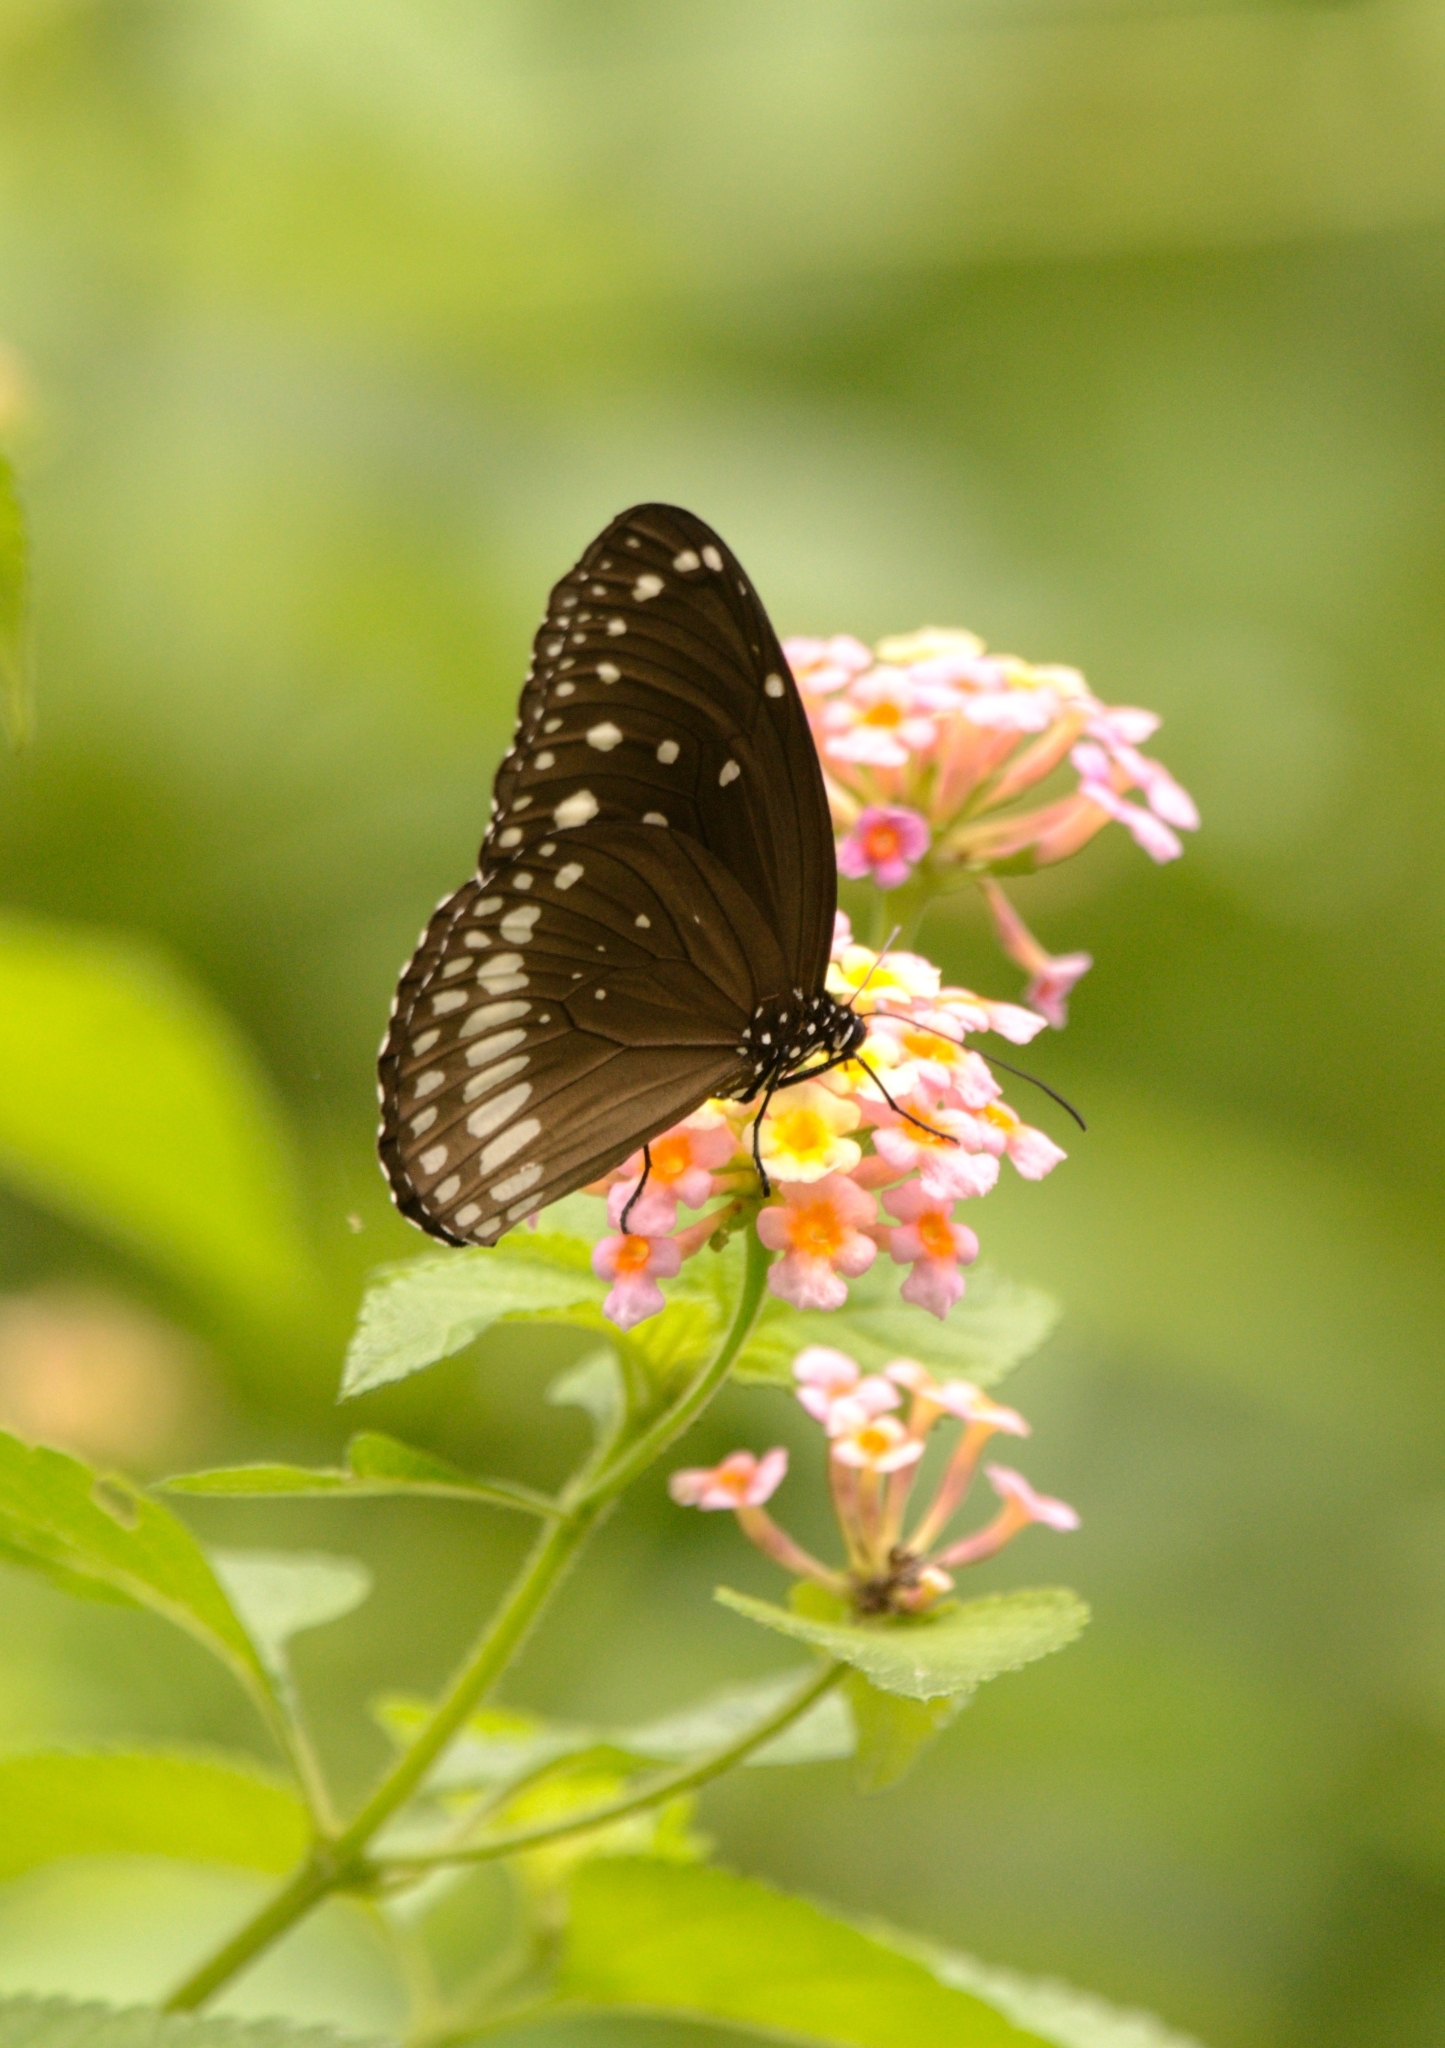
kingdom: Animalia
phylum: Arthropoda
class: Insecta
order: Lepidoptera
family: Nymphalidae
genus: Euploea
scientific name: Euploea core
